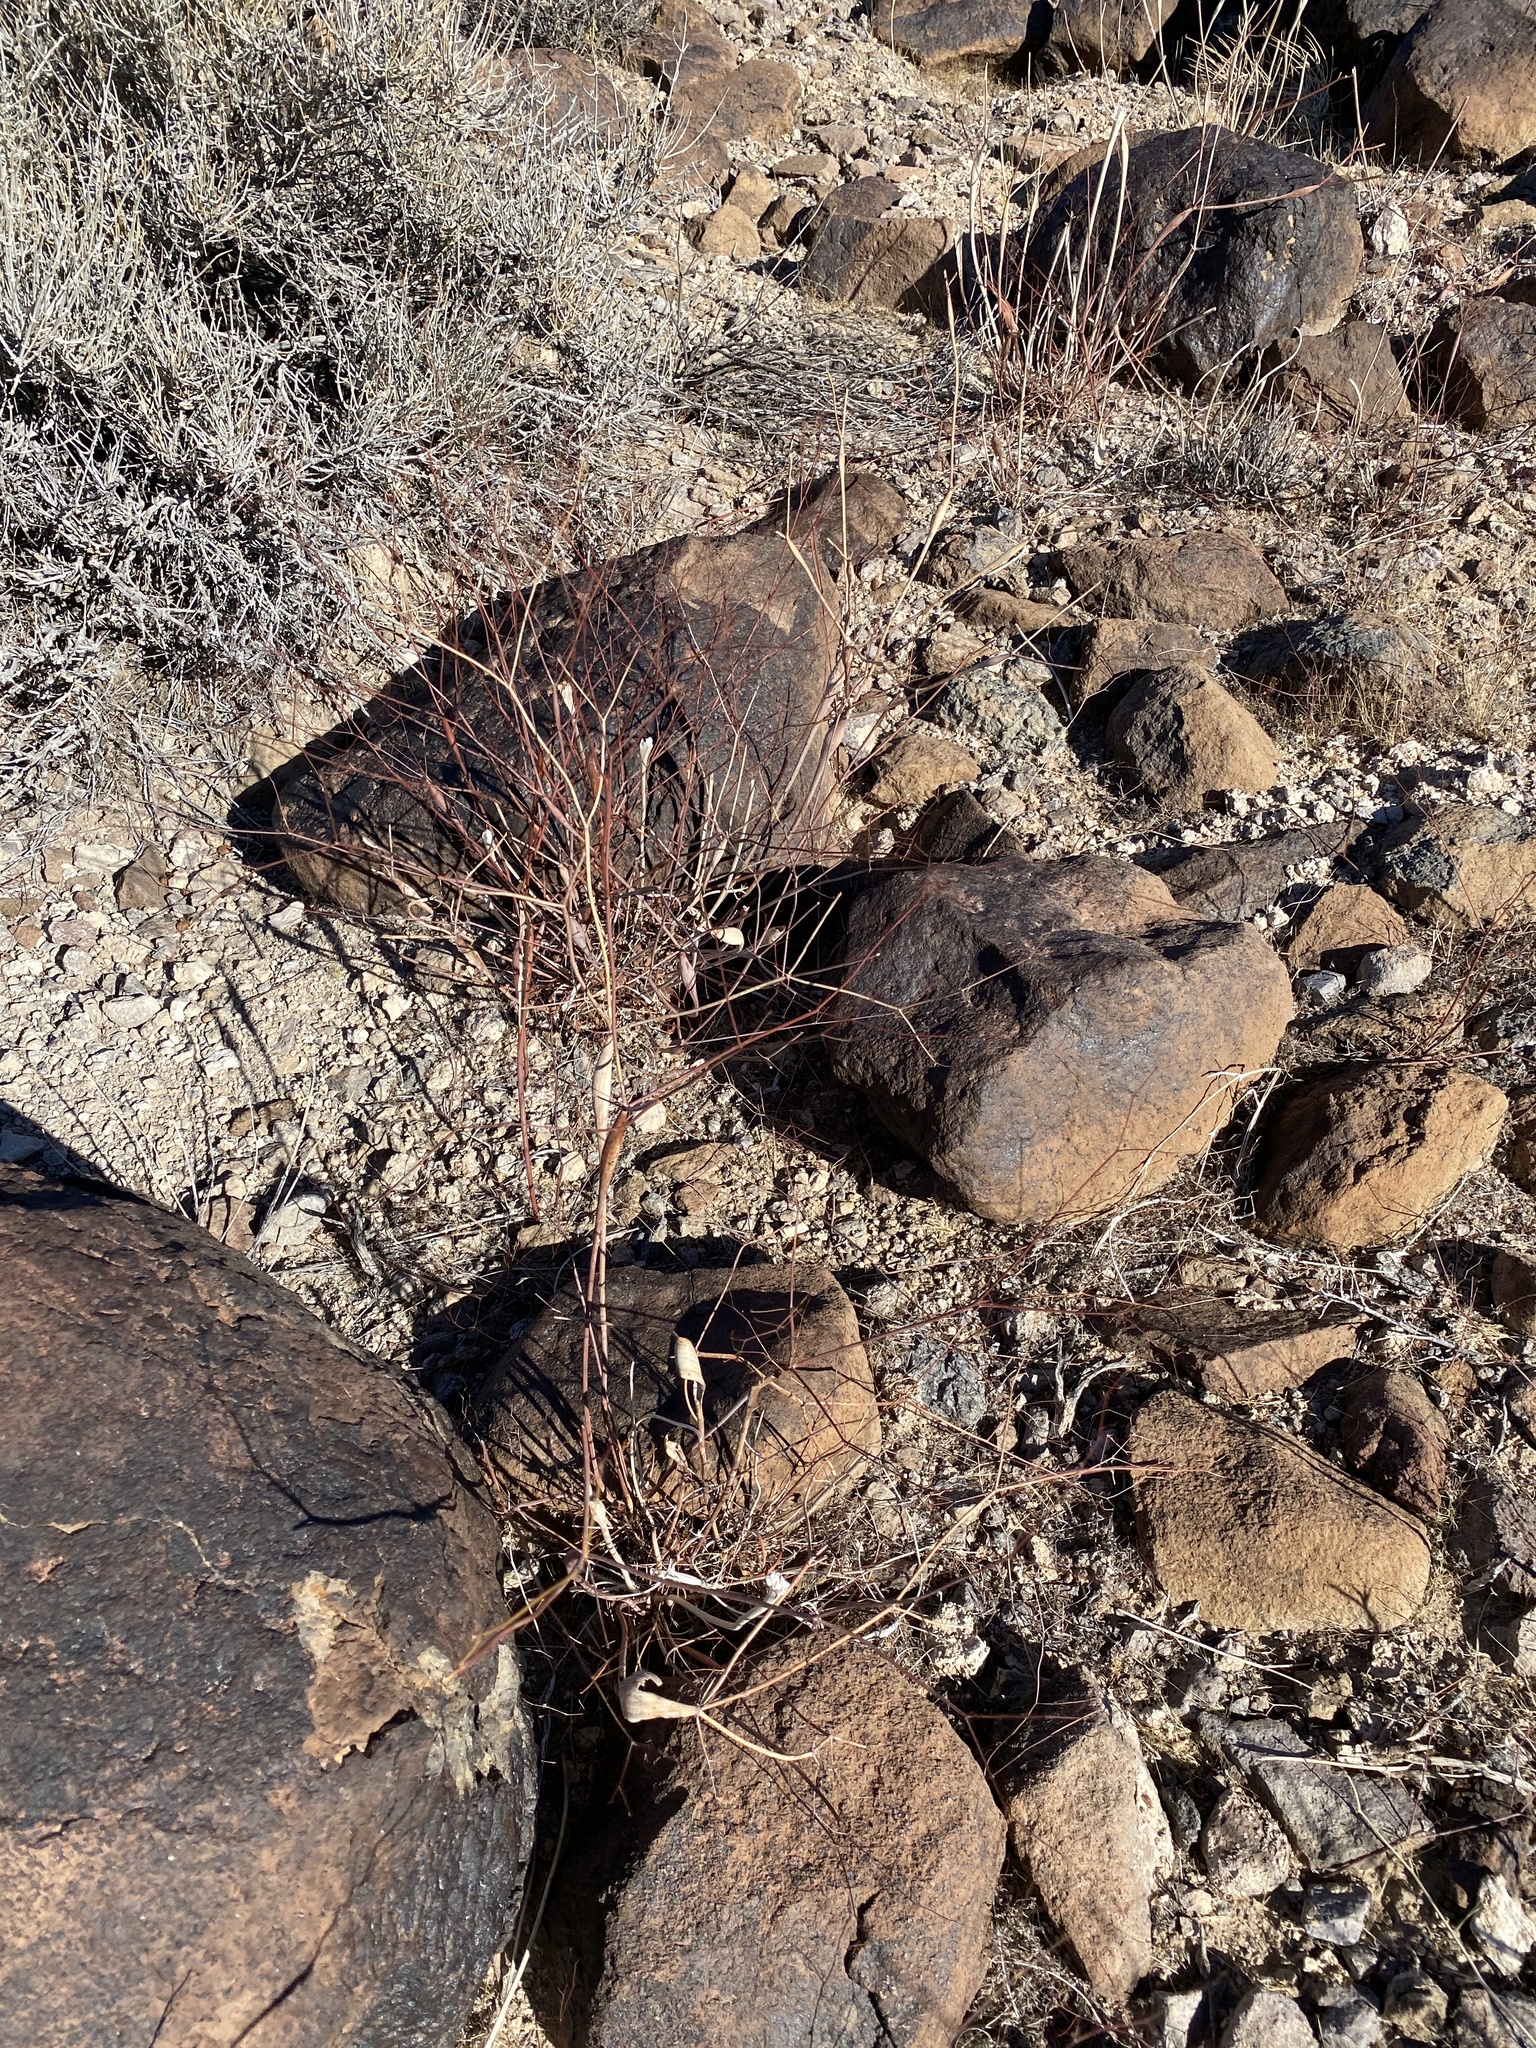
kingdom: Plantae
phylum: Tracheophyta
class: Magnoliopsida
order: Caryophyllales
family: Polygonaceae
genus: Eriogonum
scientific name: Eriogonum inflatum
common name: Desert trumpet
